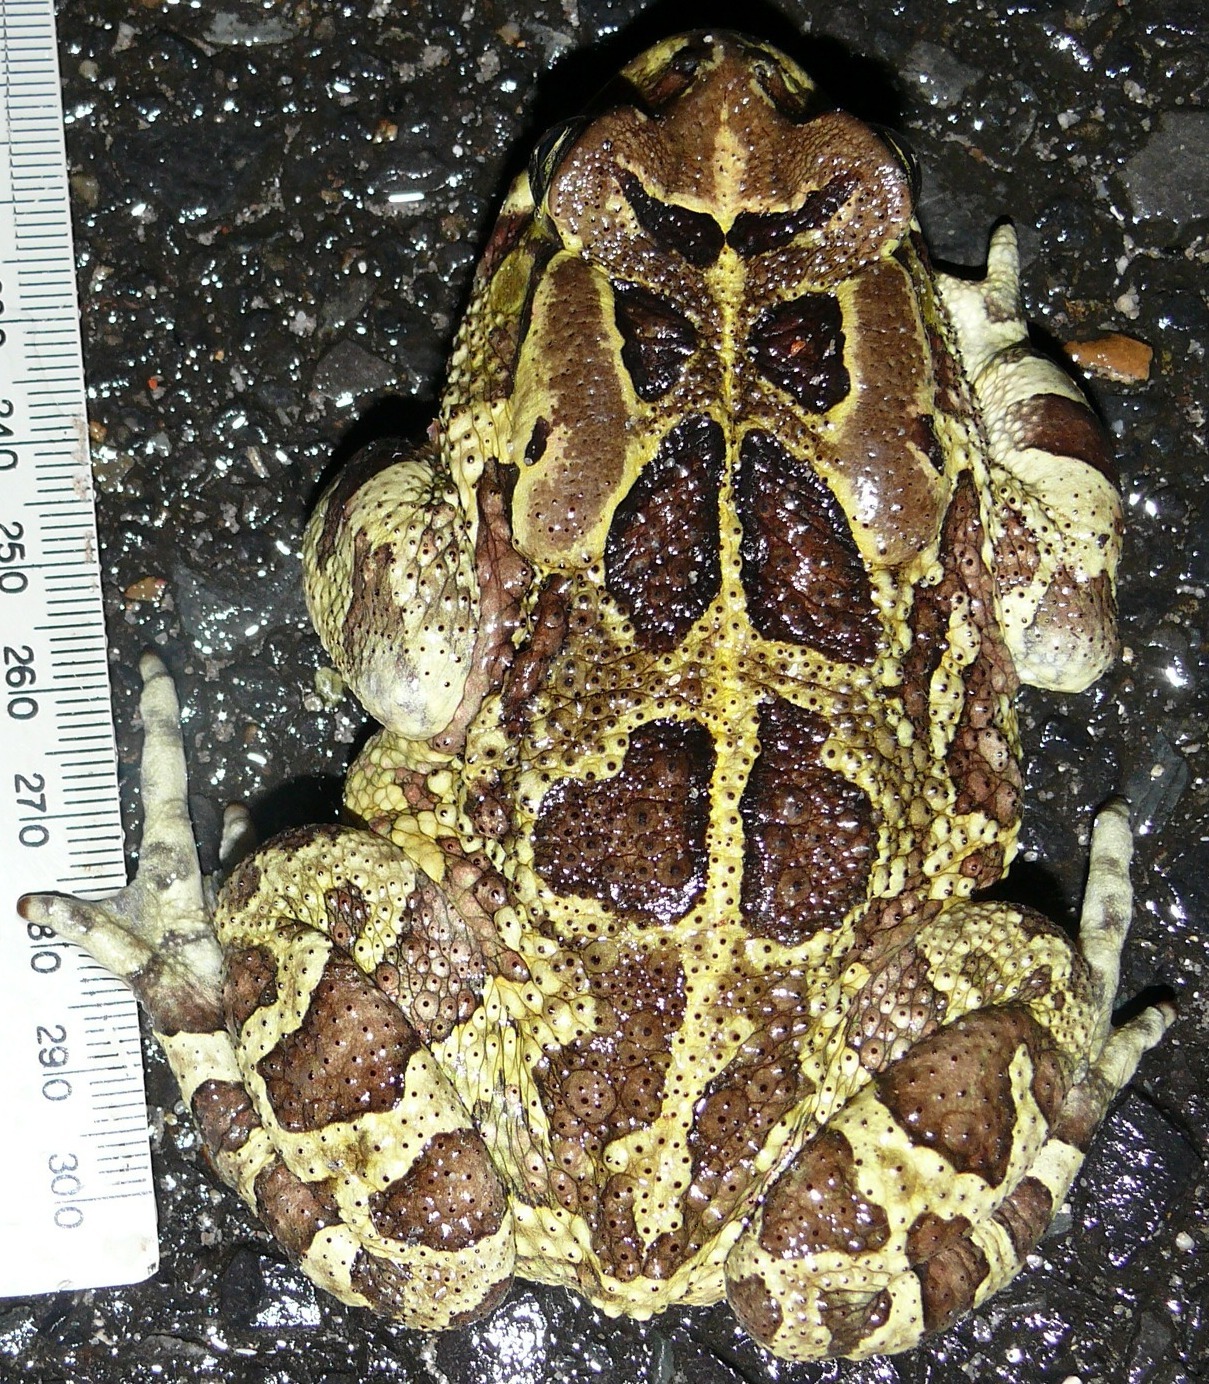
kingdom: Animalia
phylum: Chordata
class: Amphibia
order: Anura
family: Bufonidae
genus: Sclerophrys
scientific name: Sclerophrys pantherina
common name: Panther toad
